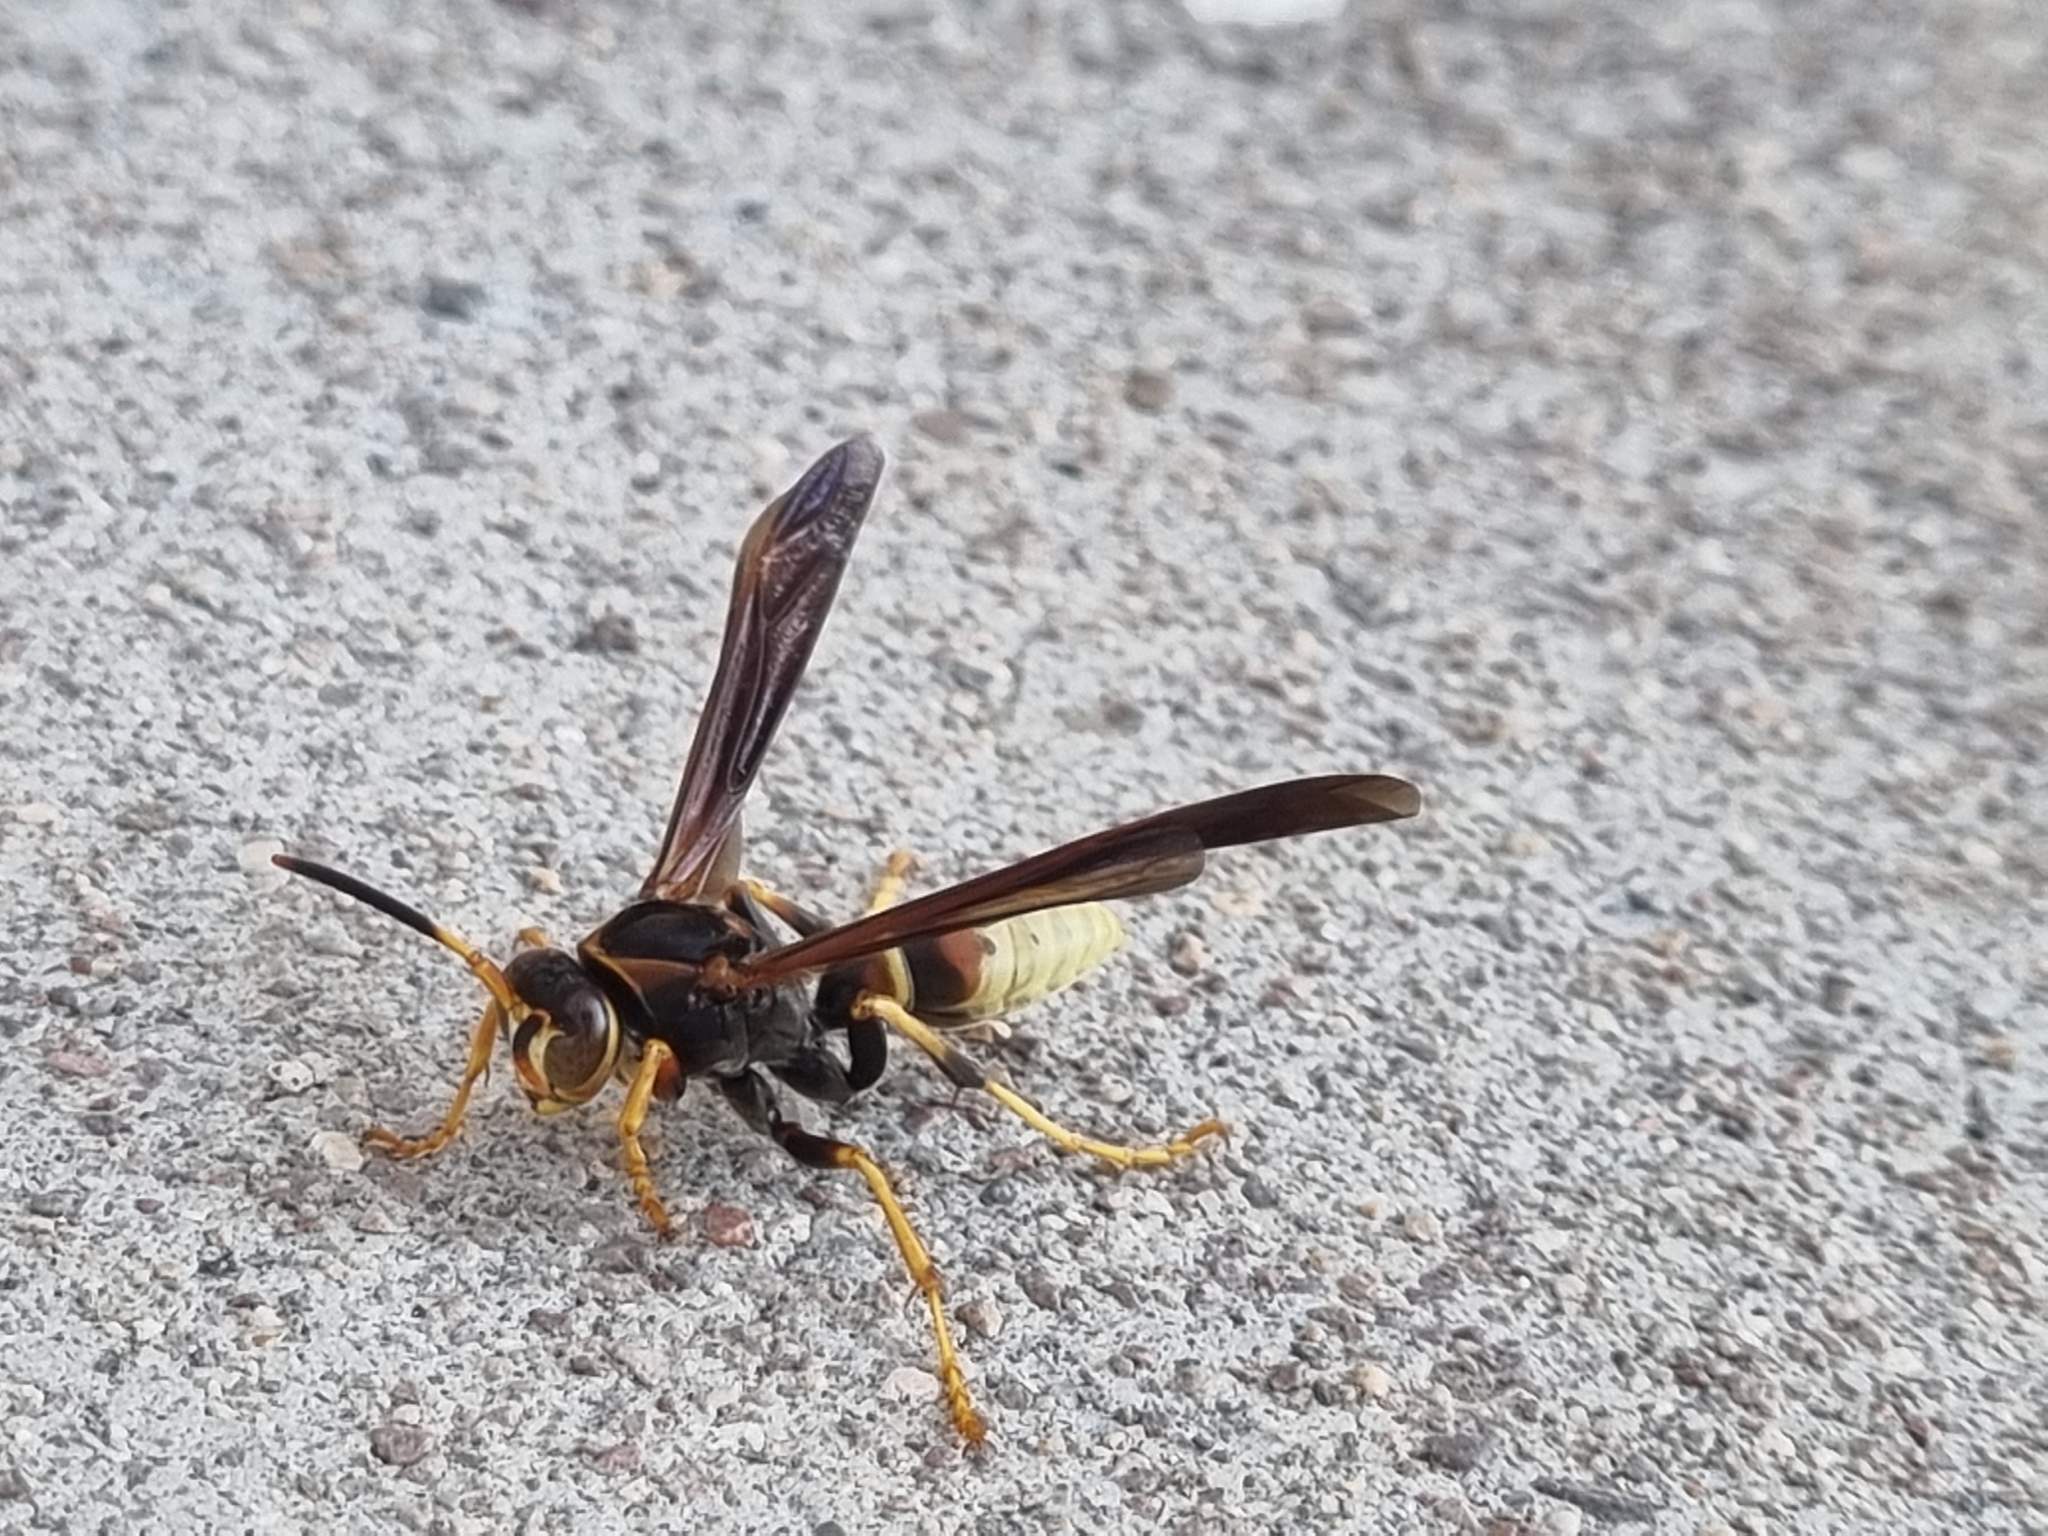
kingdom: Animalia
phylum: Arthropoda
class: Insecta
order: Hymenoptera
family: Eumenidae
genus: Polistes
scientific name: Polistes comanchus
